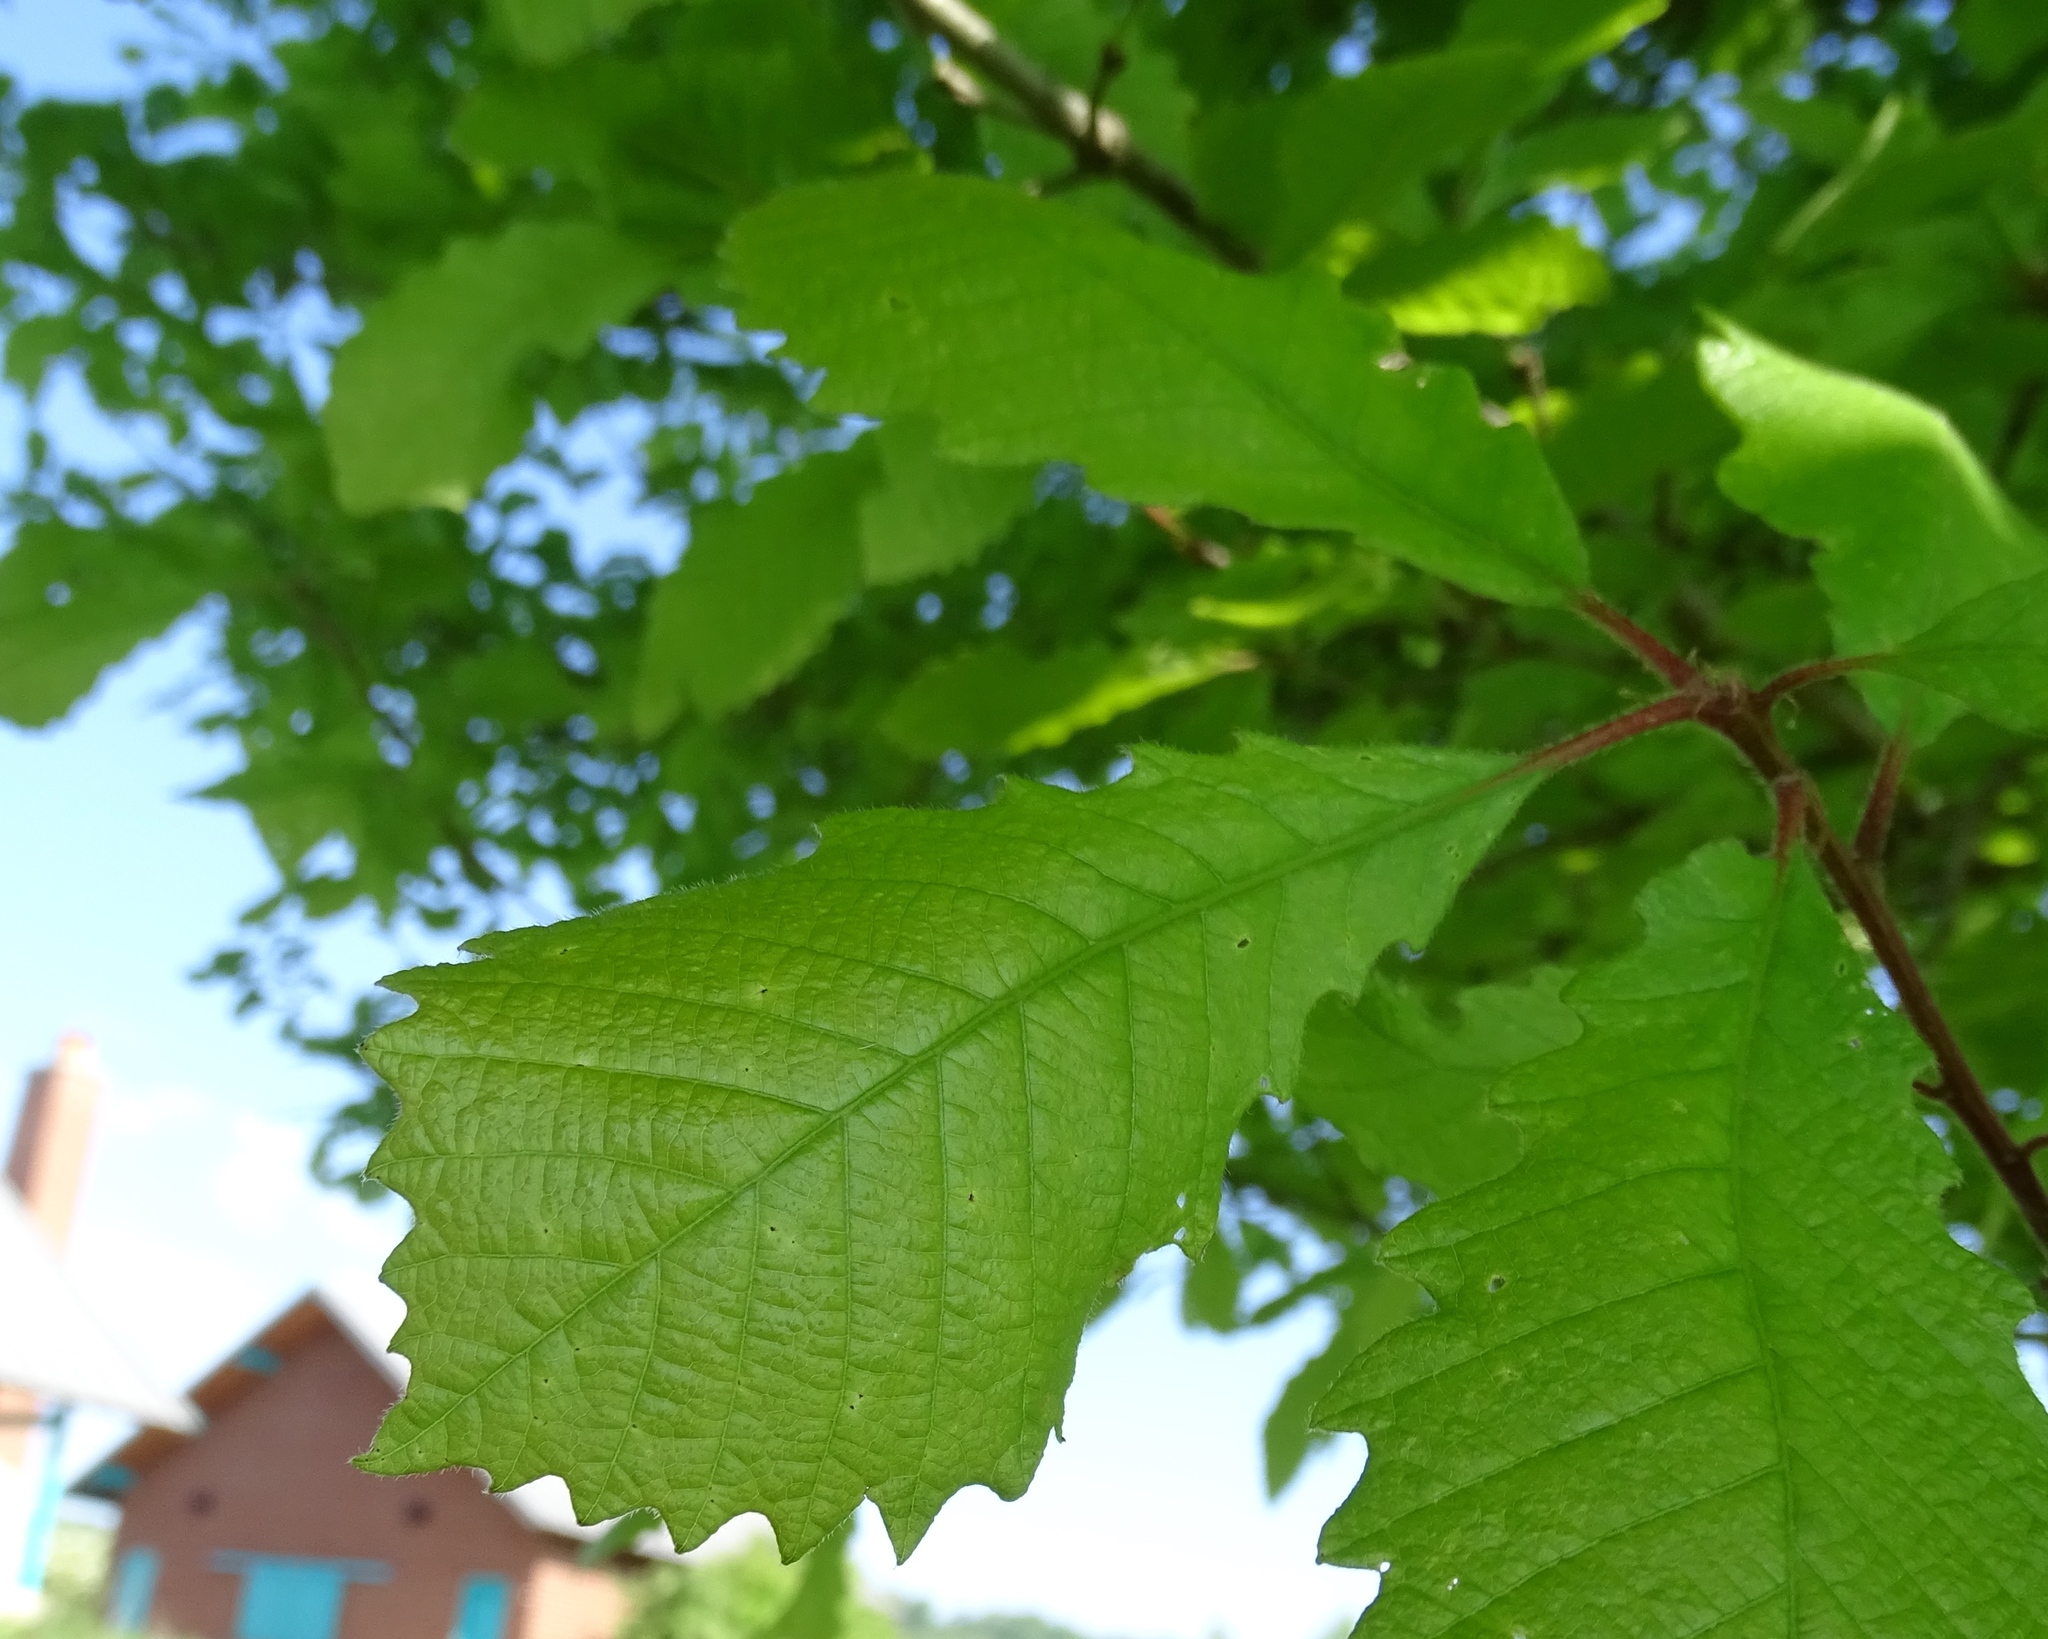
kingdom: Plantae
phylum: Tracheophyta
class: Magnoliopsida
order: Fagales
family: Fagaceae
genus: Quercus
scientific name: Quercus muehlenbergii
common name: Chinkapin oak
